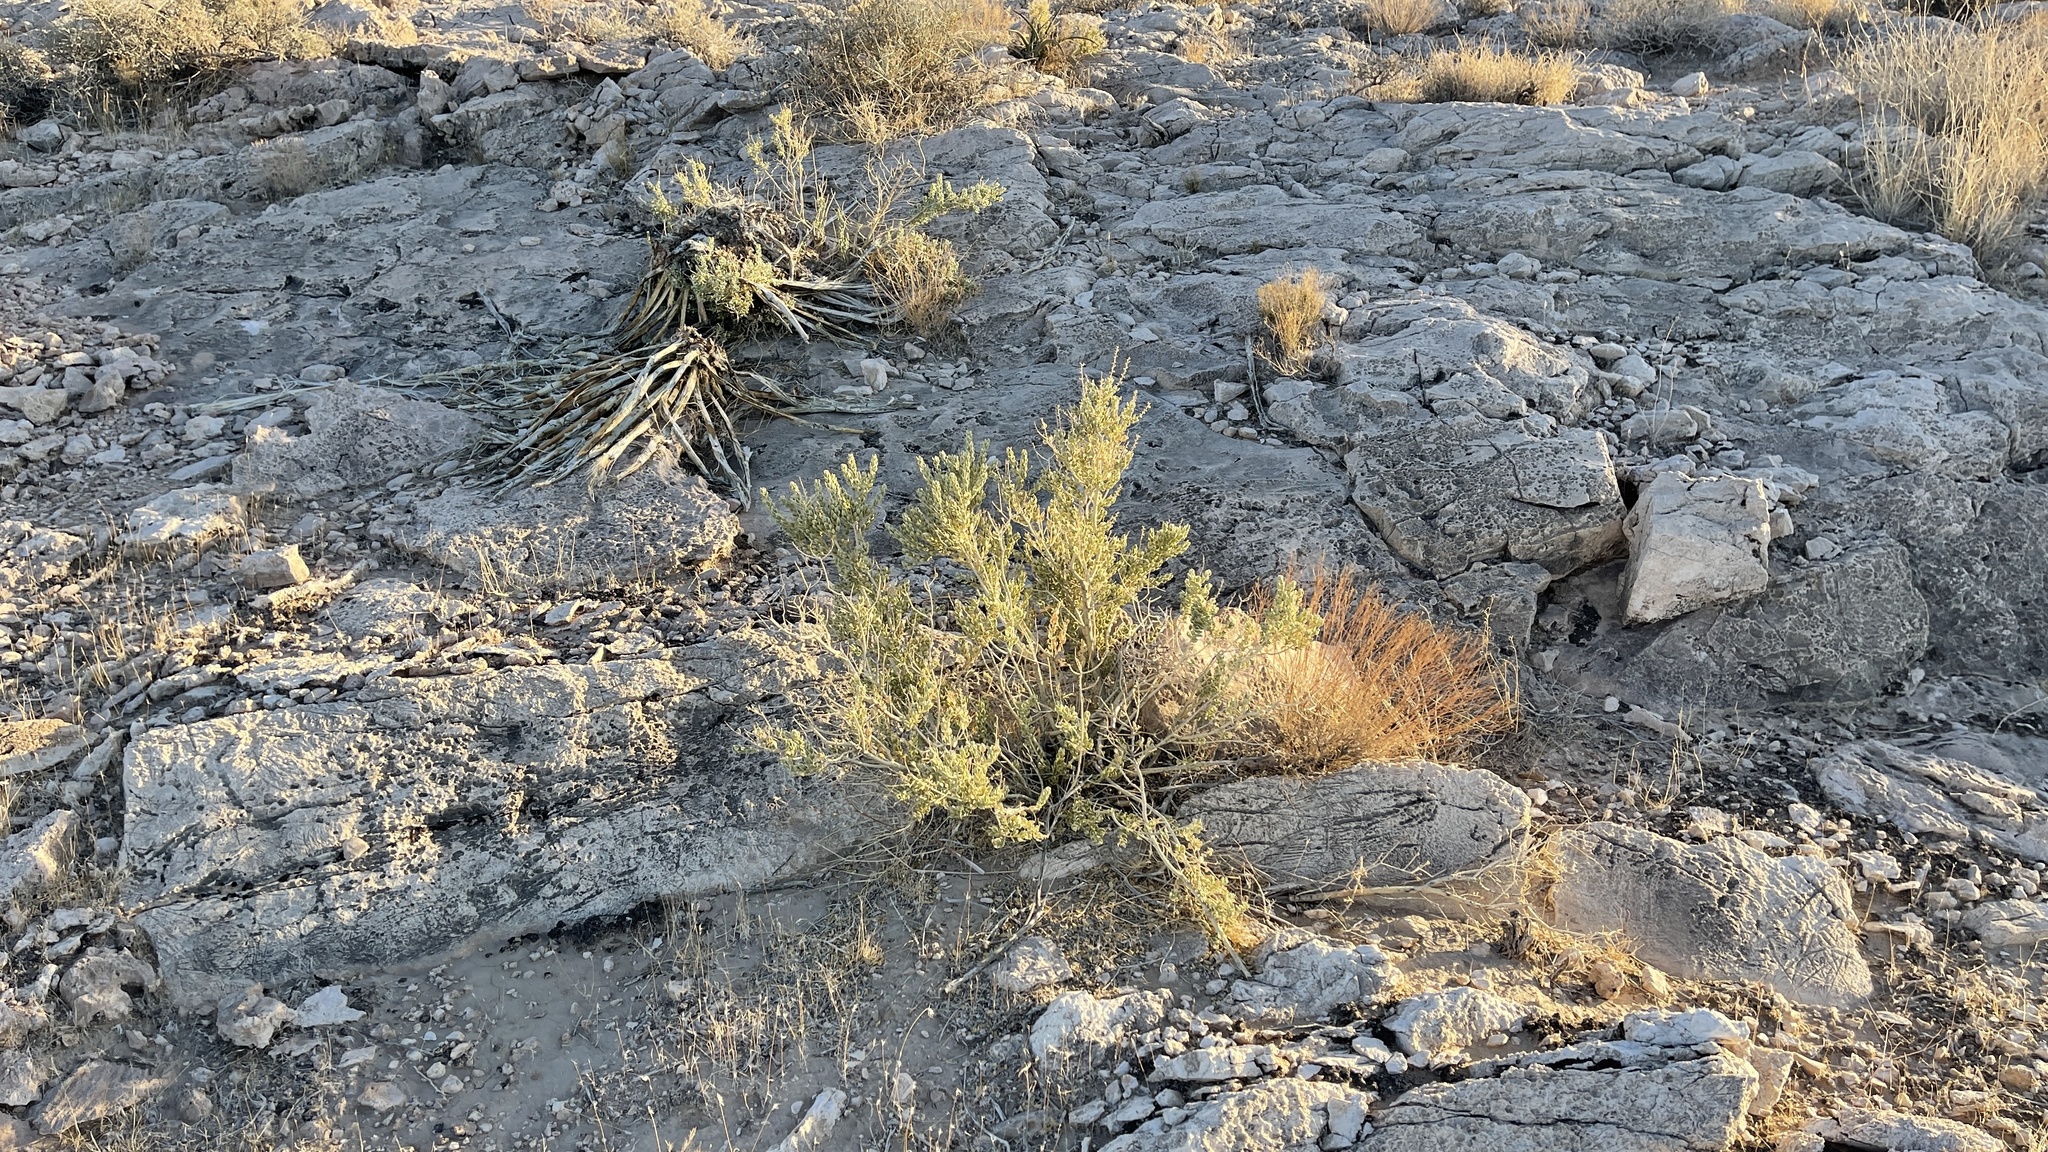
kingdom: Plantae
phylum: Tracheophyta
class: Magnoliopsida
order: Celastrales
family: Celastraceae
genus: Mortonia
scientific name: Mortonia utahensis
